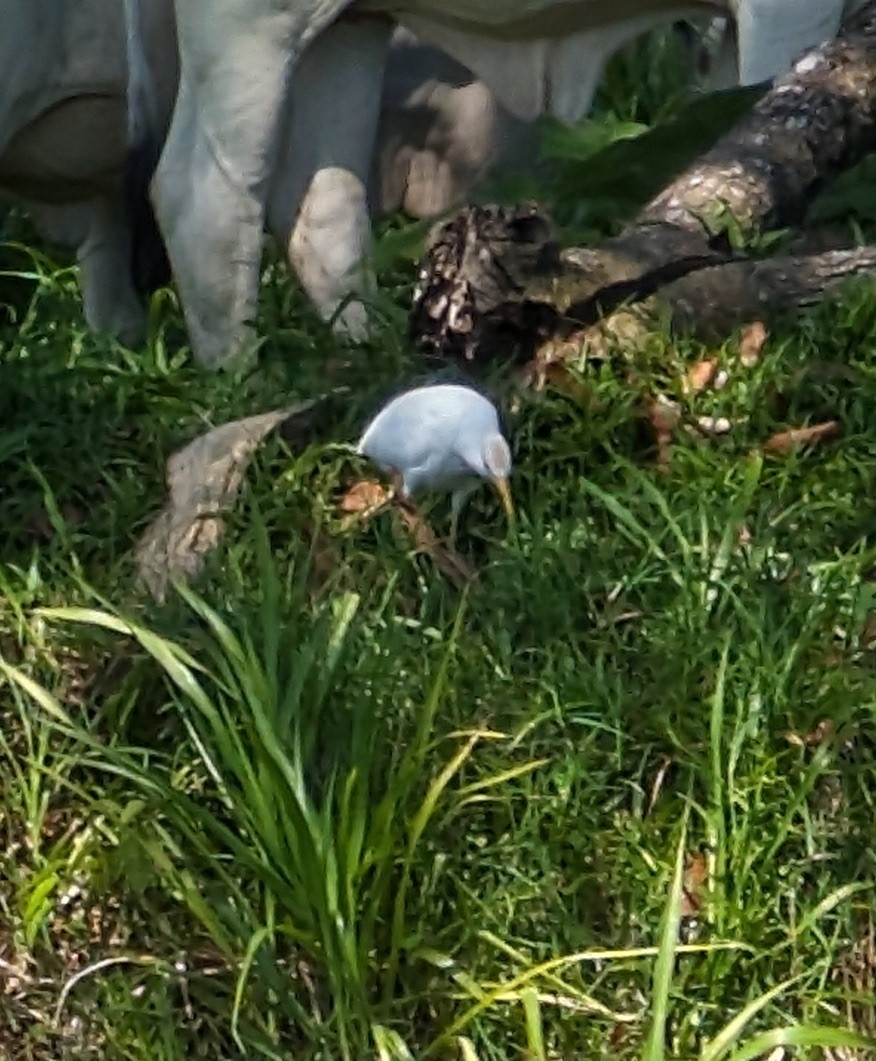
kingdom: Animalia
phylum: Chordata
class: Aves
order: Pelecaniformes
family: Ardeidae
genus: Bubulcus
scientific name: Bubulcus ibis
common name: Cattle egret
